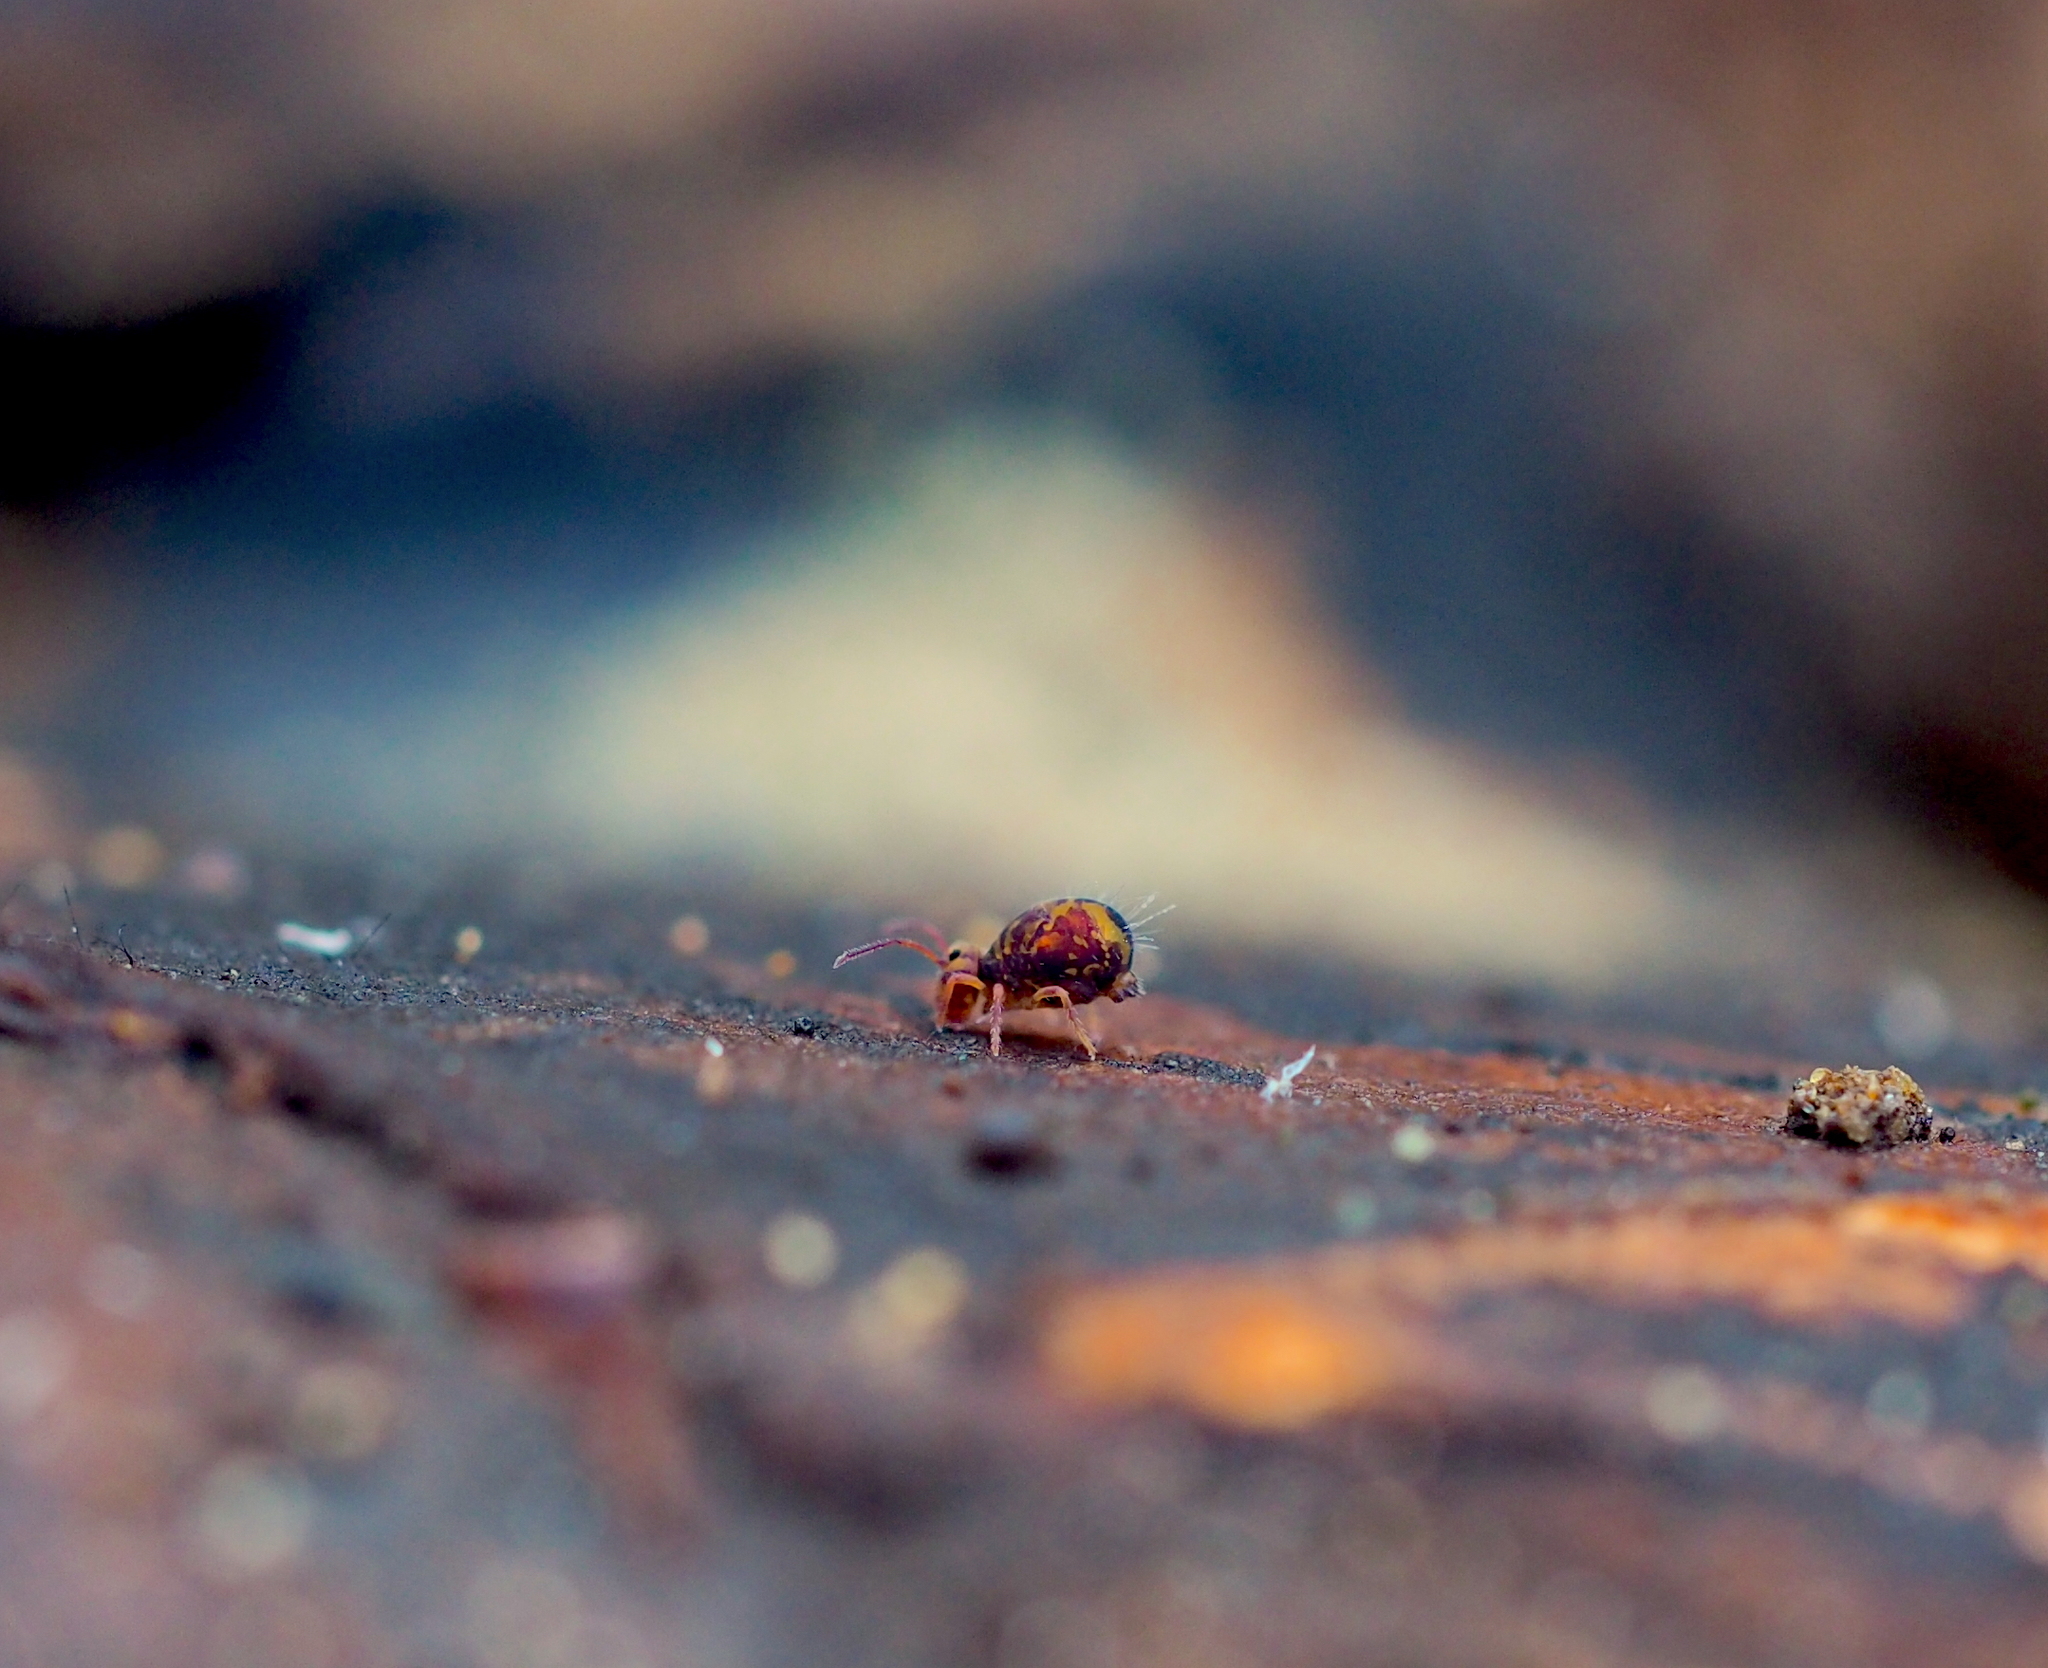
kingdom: Animalia
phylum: Arthropoda
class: Collembola
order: Symphypleona
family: Dicyrtomidae
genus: Dicyrtomina
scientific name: Dicyrtomina ornata
